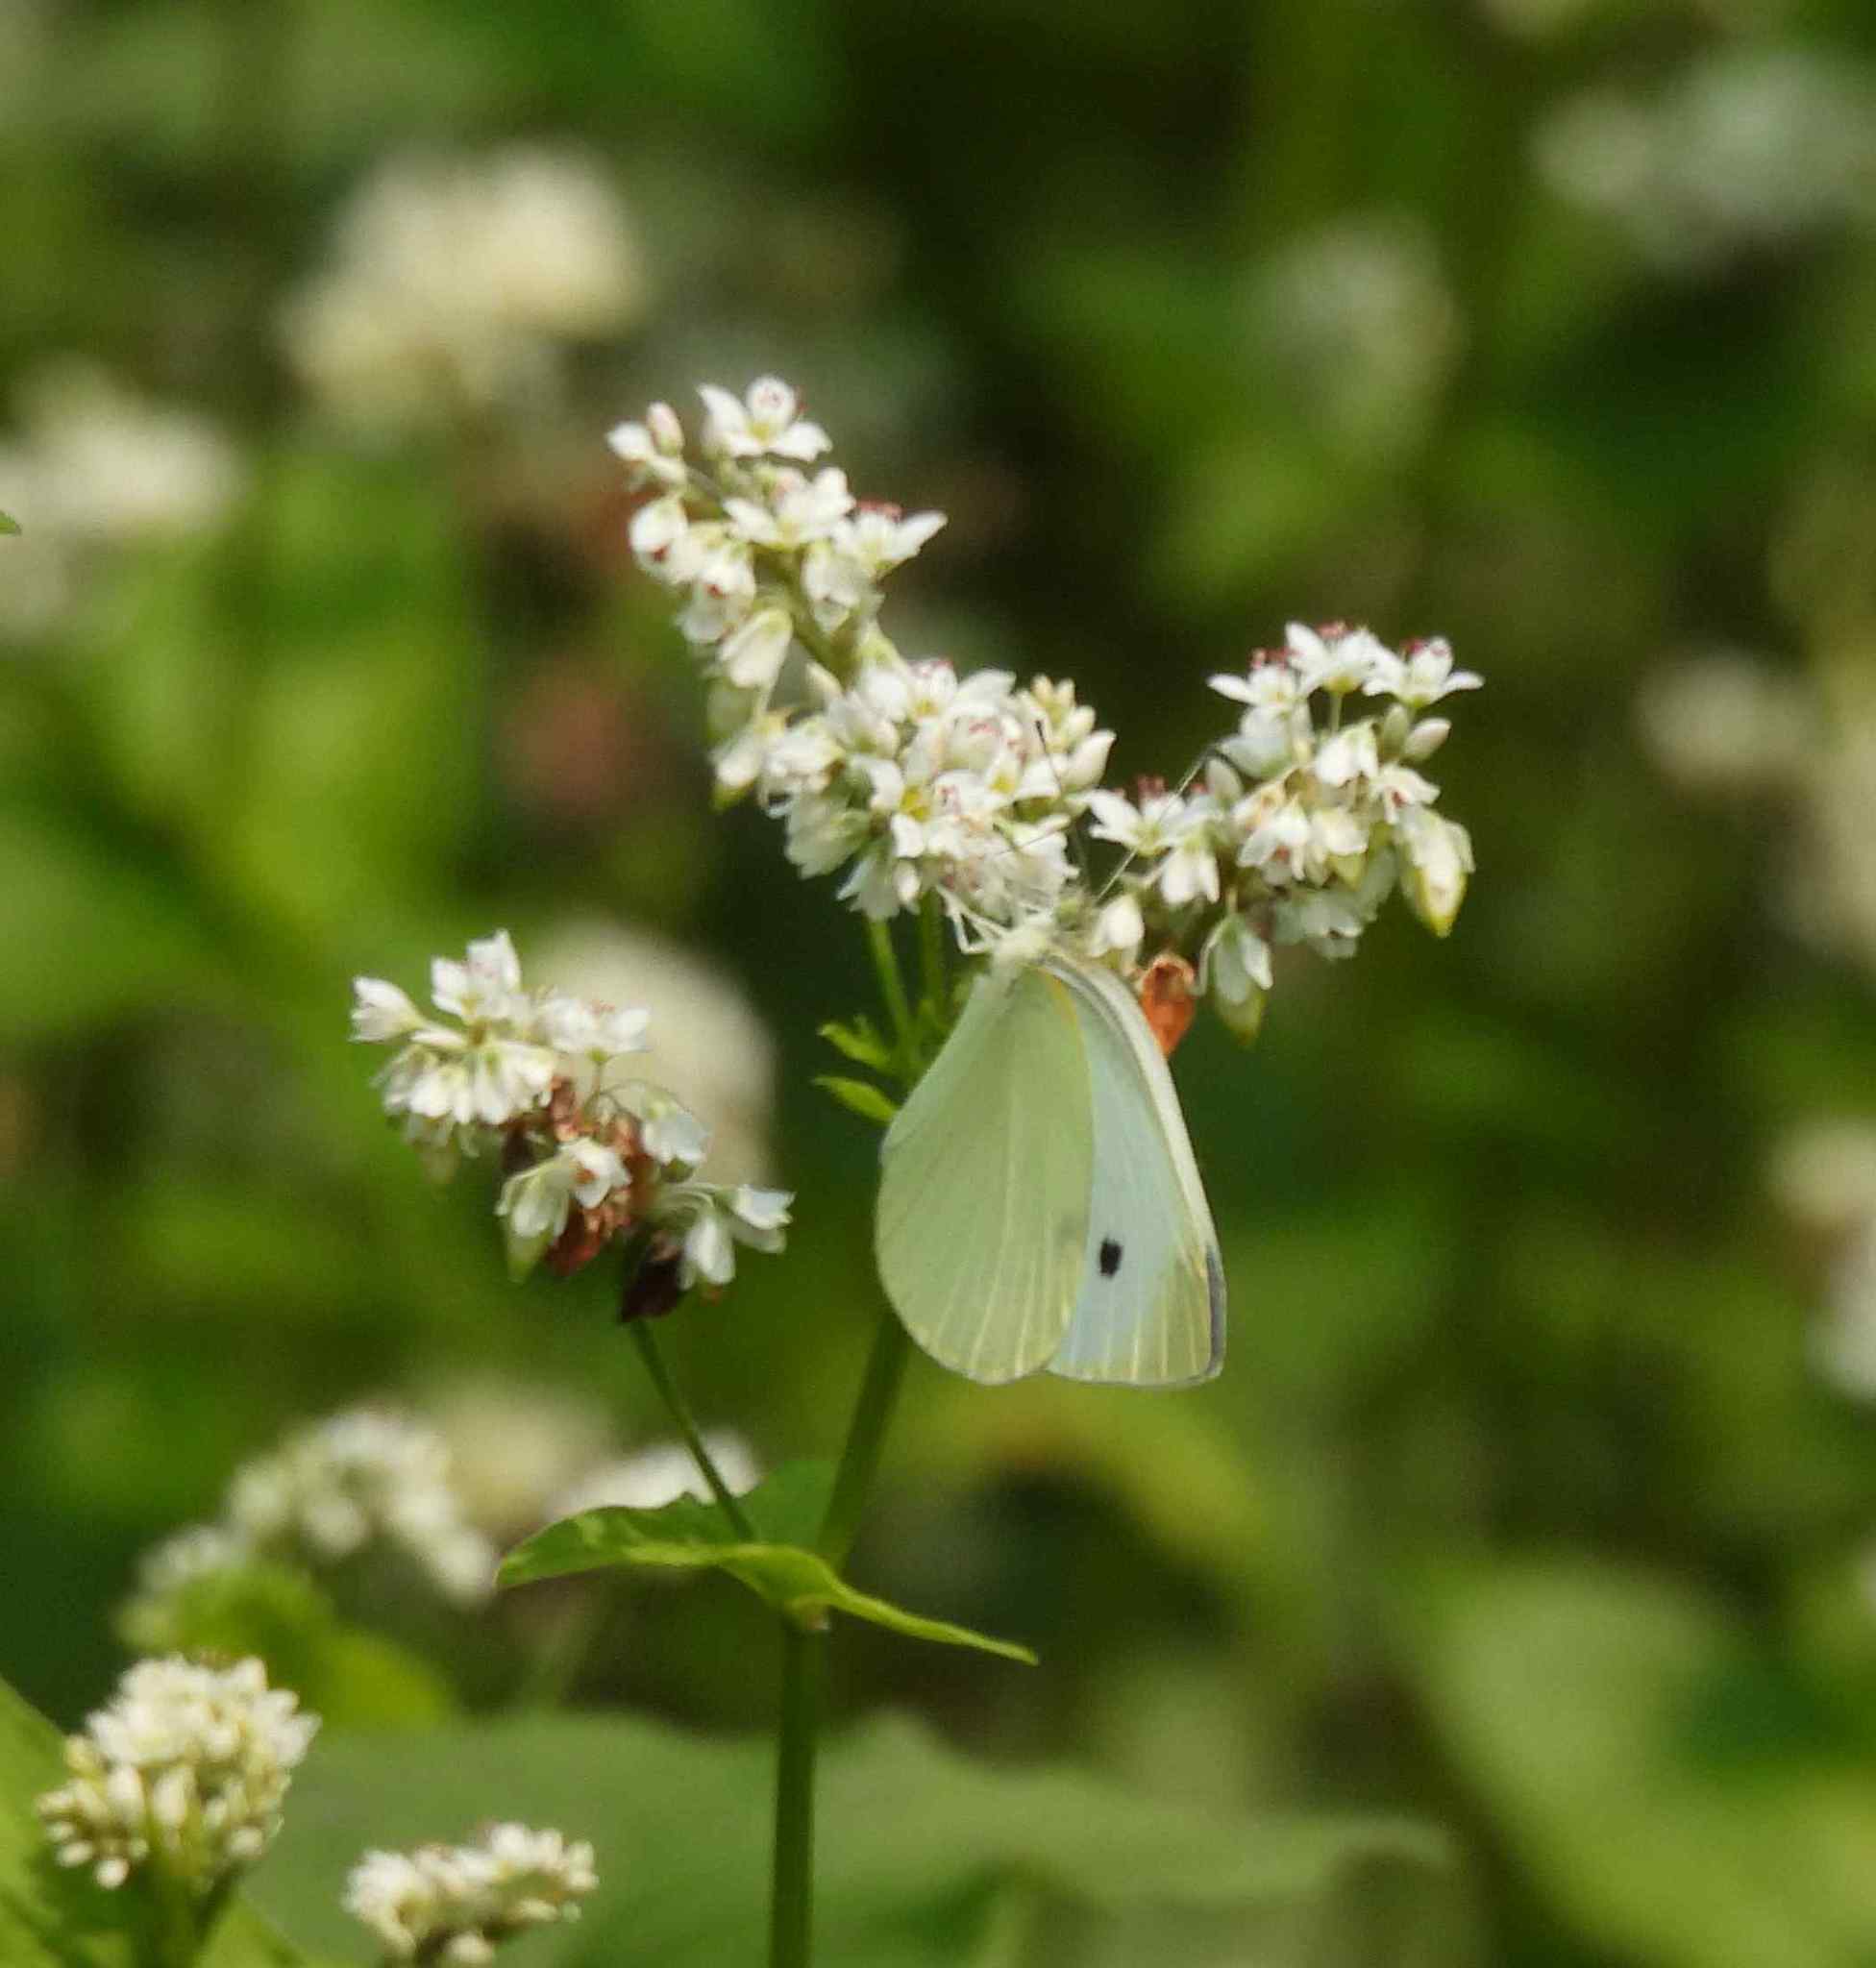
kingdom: Animalia
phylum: Arthropoda
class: Insecta
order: Lepidoptera
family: Pieridae
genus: Pieris
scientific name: Pieris rapae
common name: Small white
